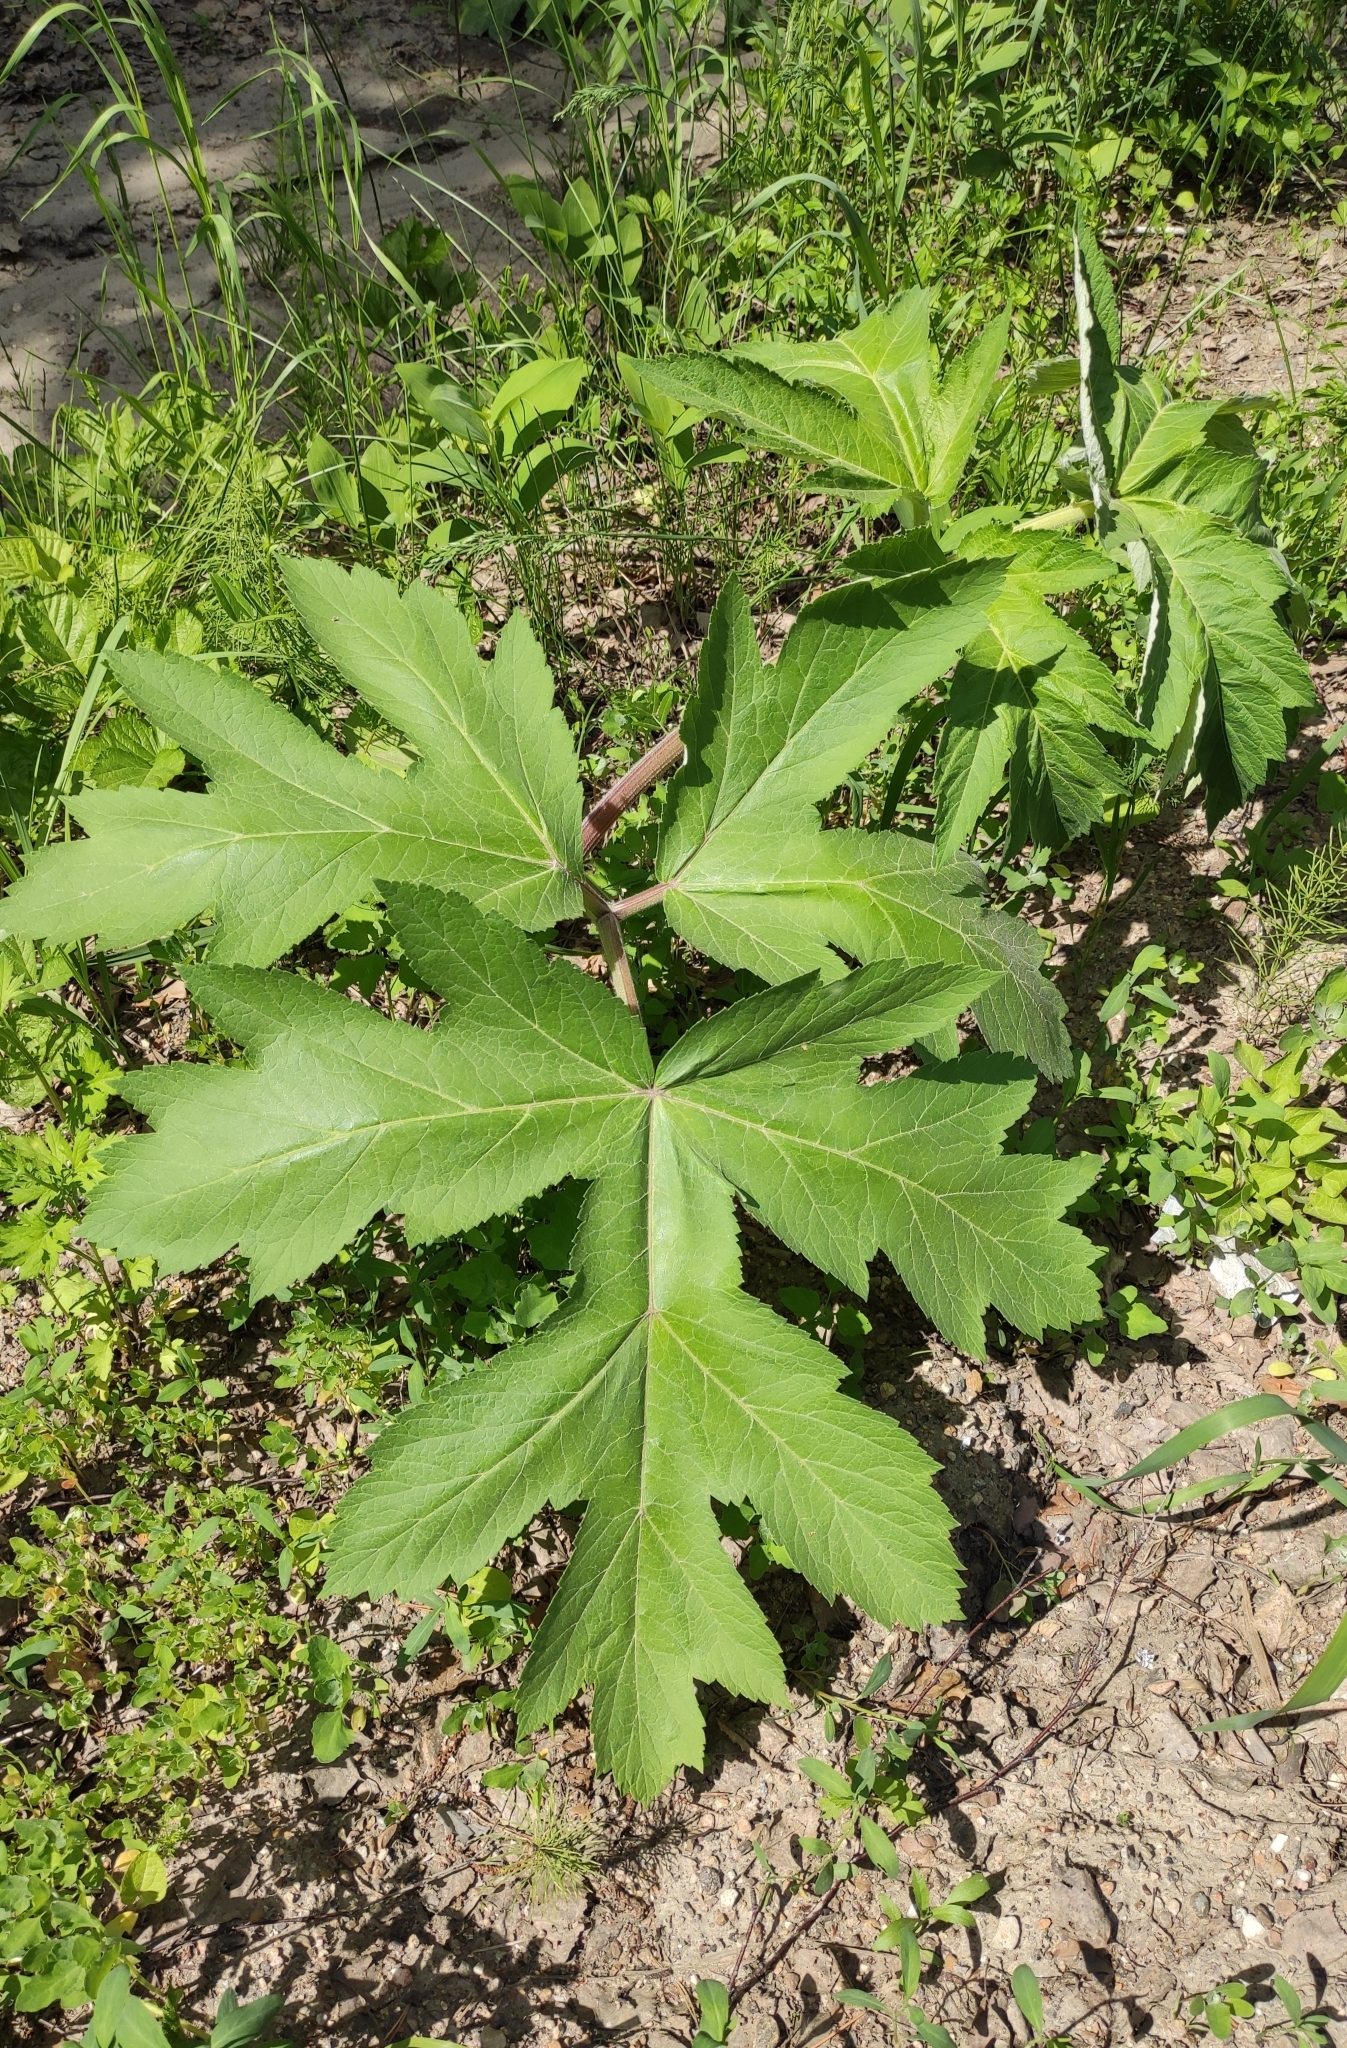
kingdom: Plantae
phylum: Tracheophyta
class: Magnoliopsida
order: Apiales
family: Apiaceae
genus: Heracleum
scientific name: Heracleum dissectum
